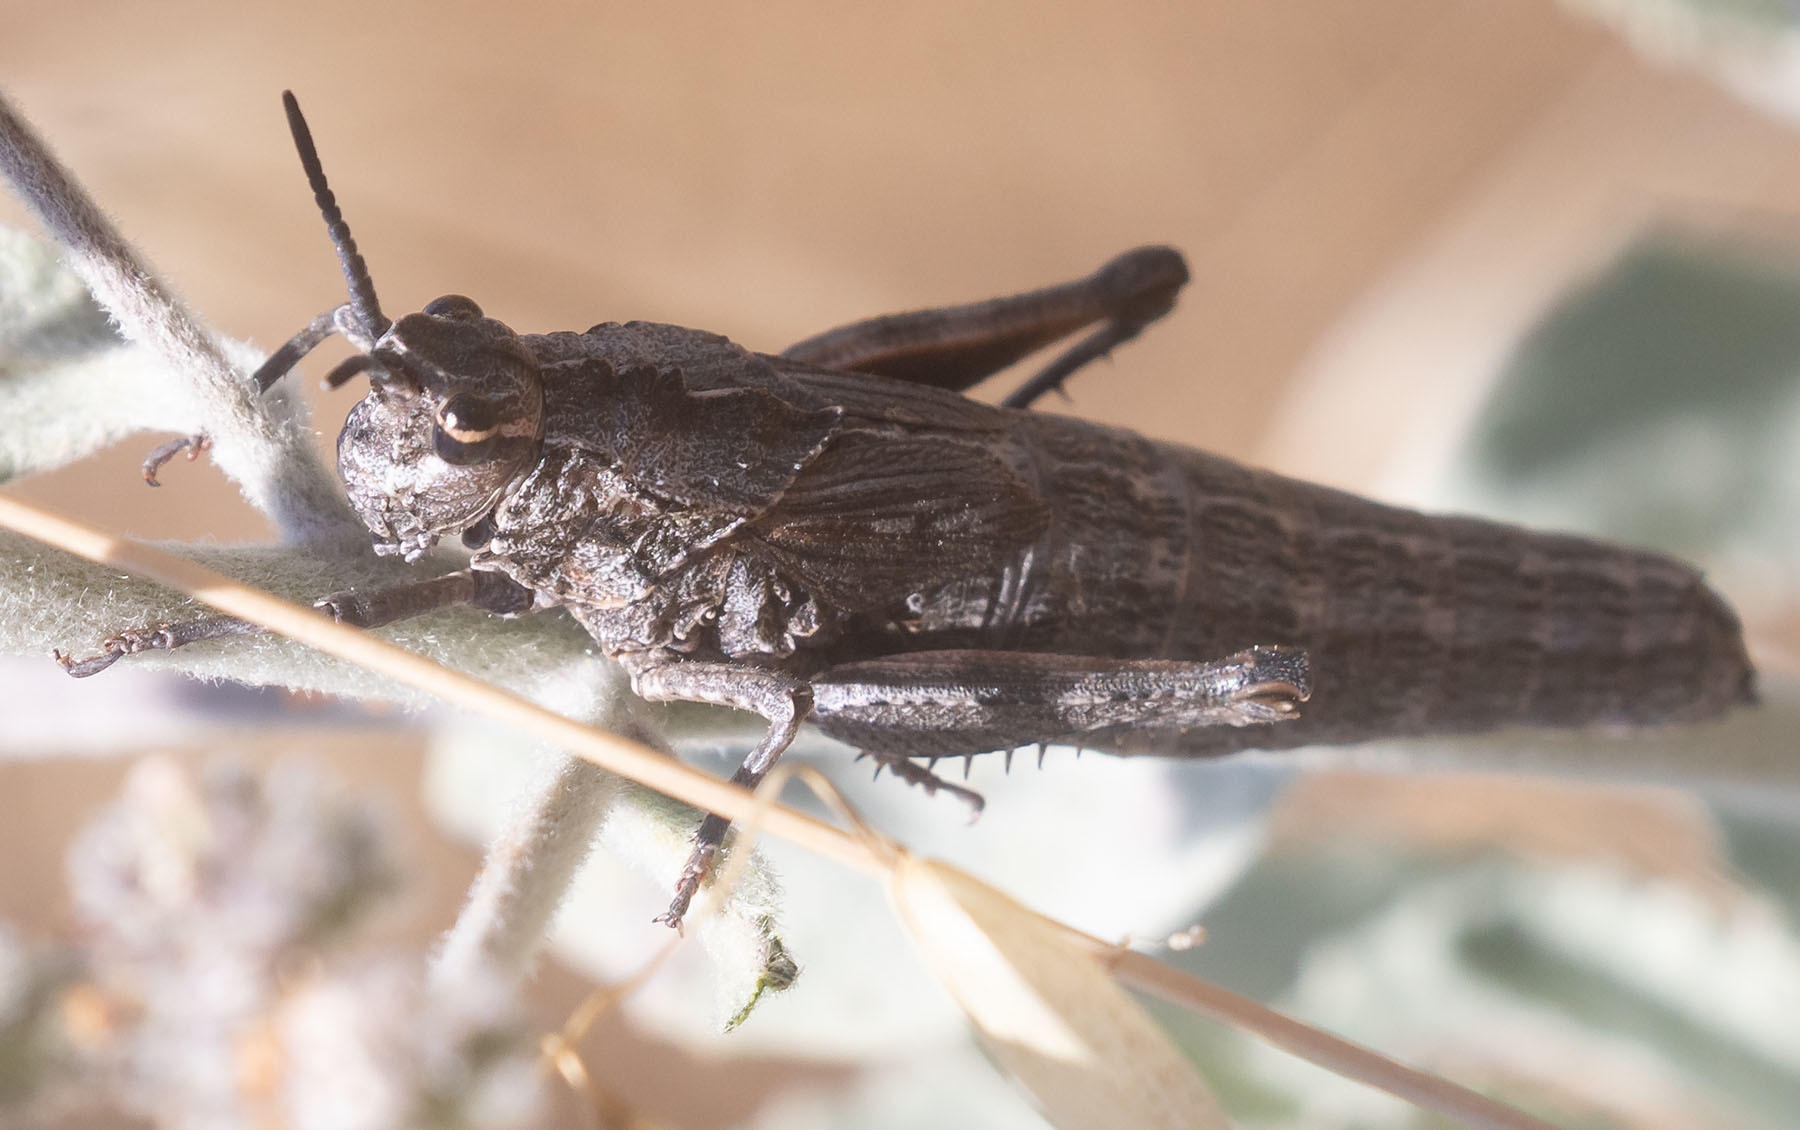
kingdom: Animalia
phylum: Arthropoda
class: Insecta
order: Orthoptera
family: Romaleidae
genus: Dracotettix
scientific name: Dracotettix monstrosus
